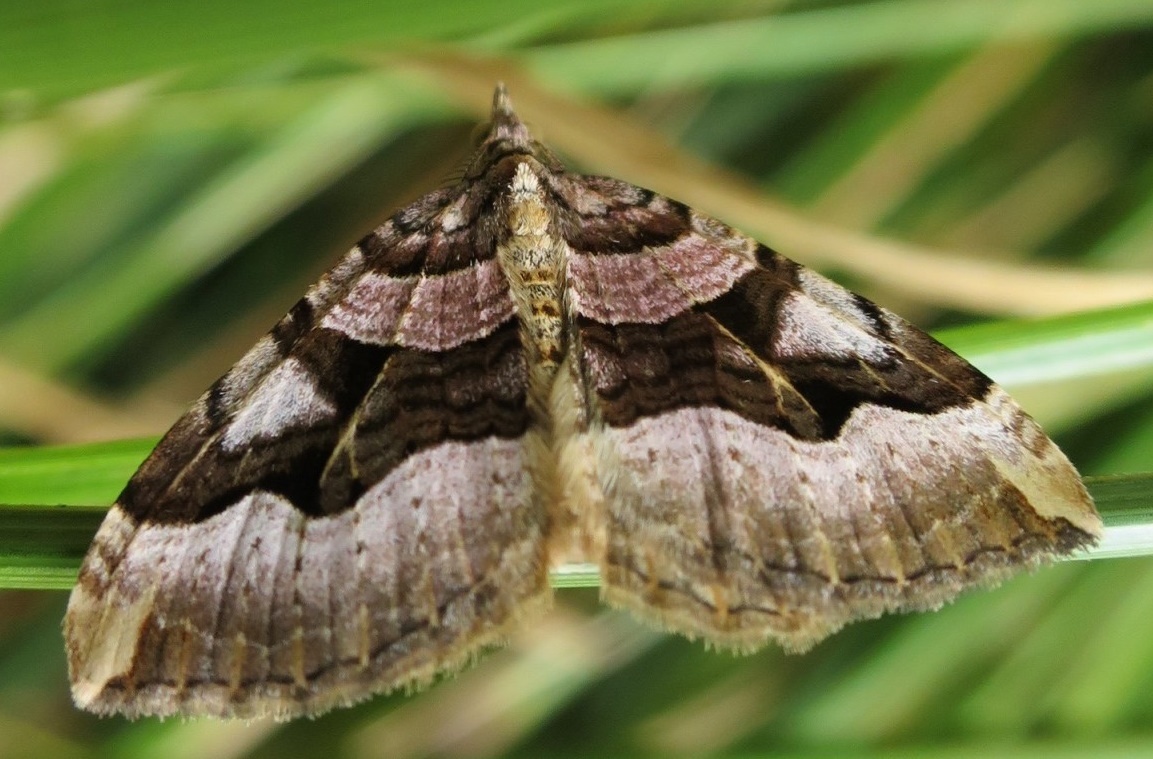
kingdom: Animalia
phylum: Arthropoda
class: Insecta
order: Lepidoptera
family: Geometridae
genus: Xanthorhoe
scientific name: Xanthorhoe semifissata
